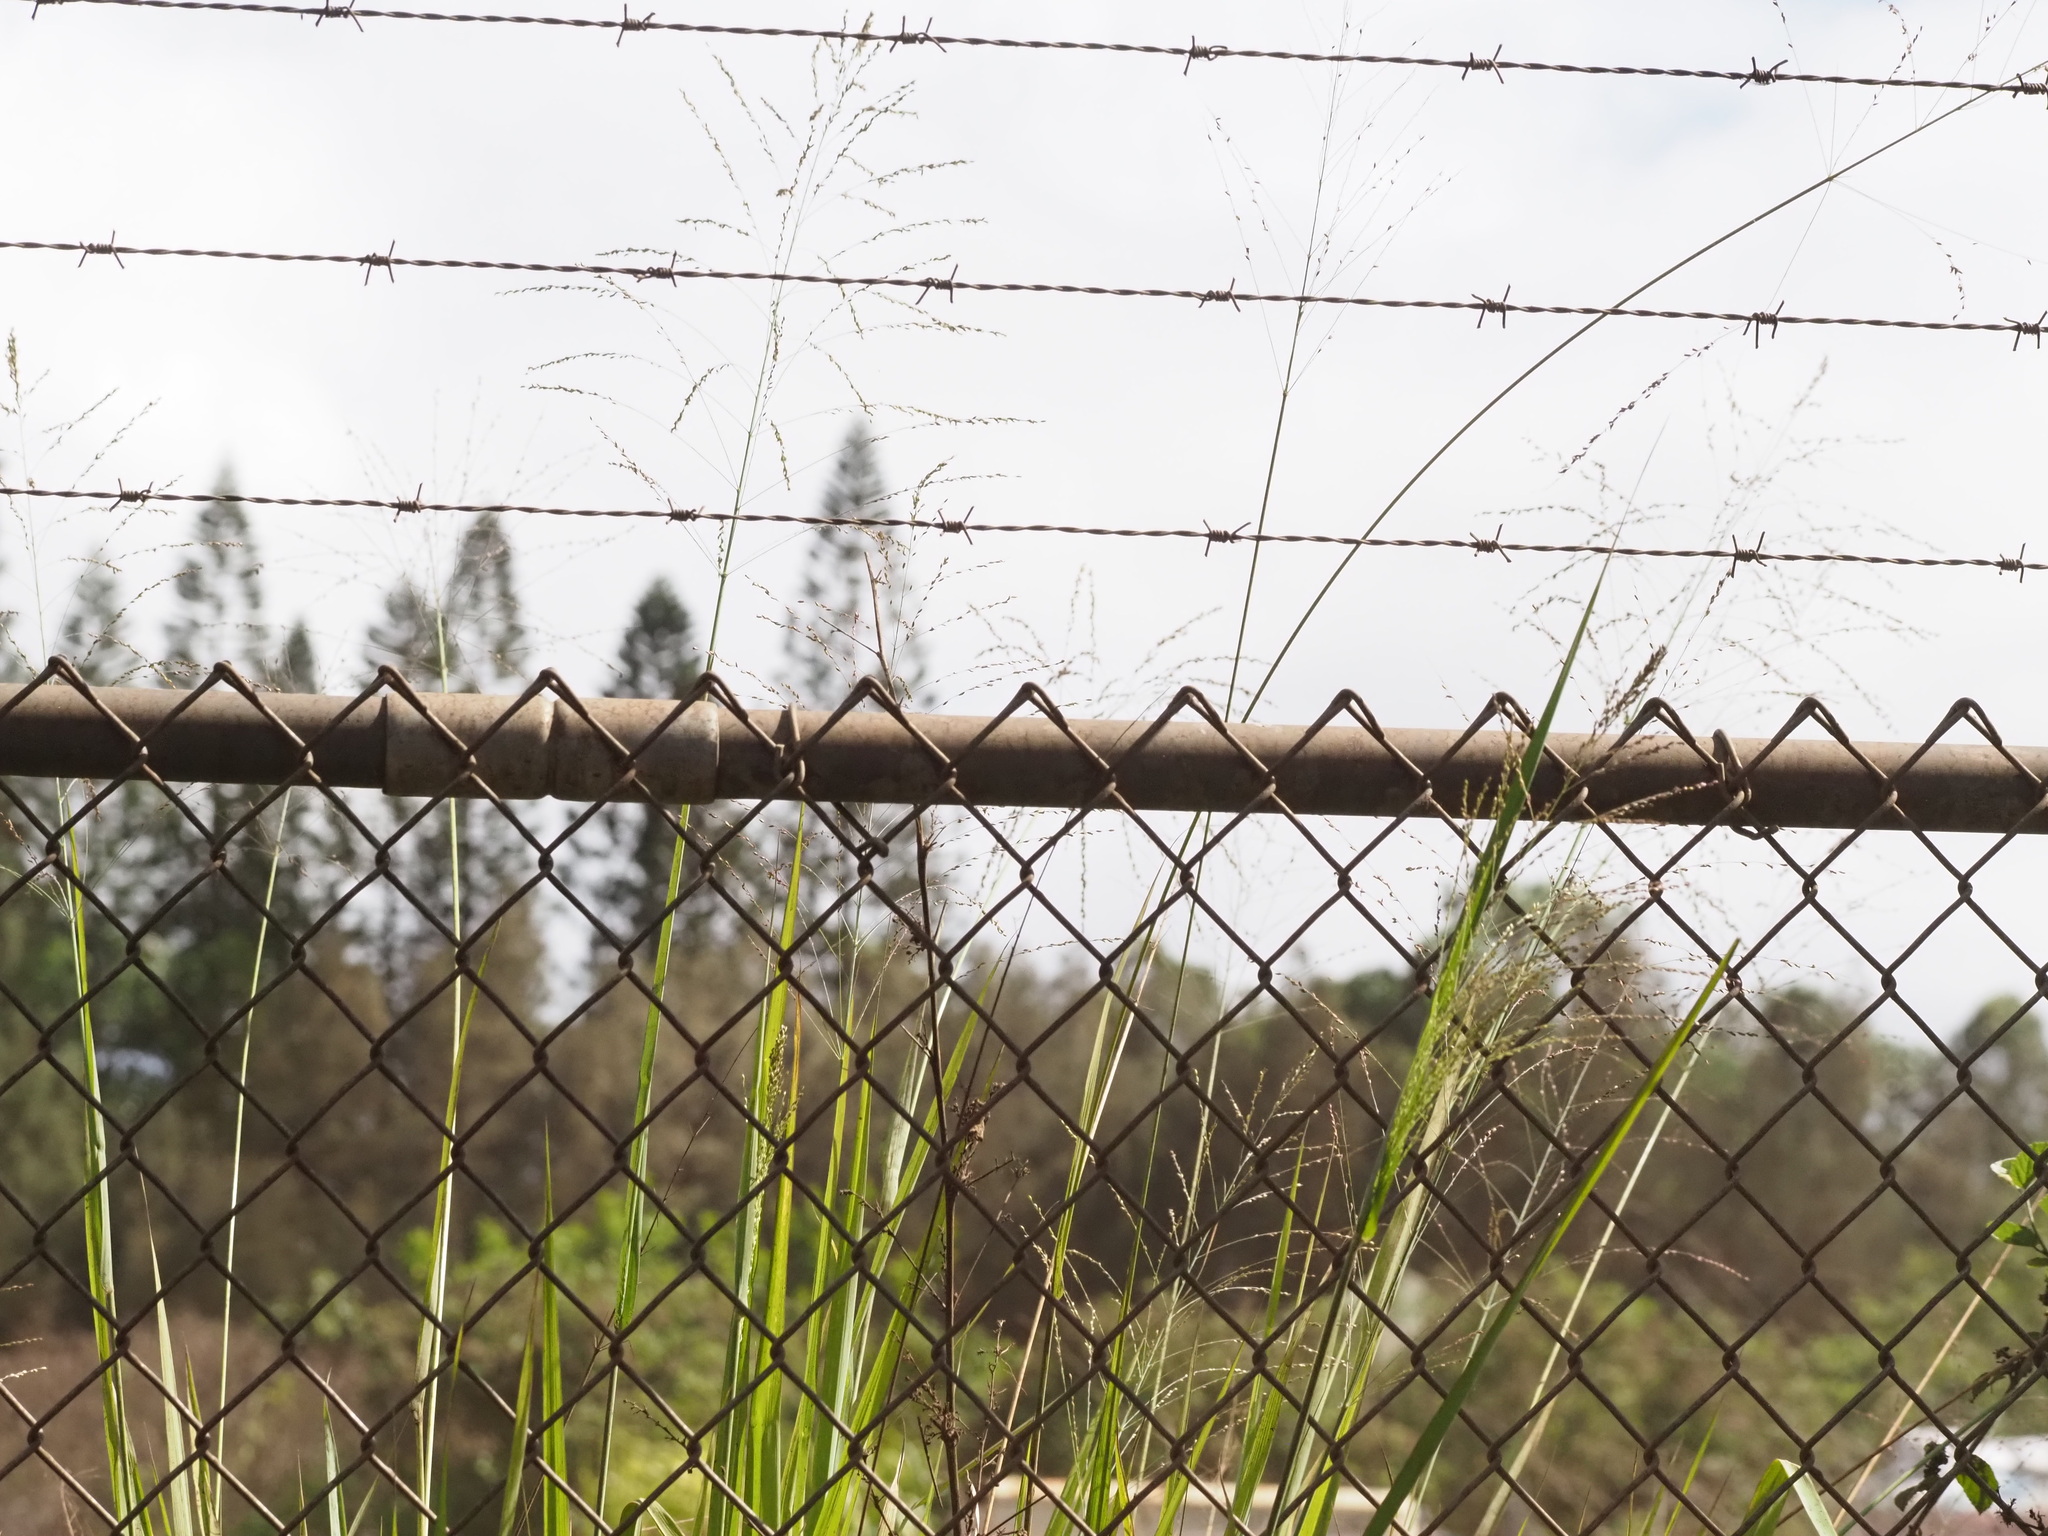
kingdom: Plantae
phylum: Tracheophyta
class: Liliopsida
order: Poales
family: Poaceae
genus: Megathyrsus
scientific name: Megathyrsus maximus
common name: Guineagrass
